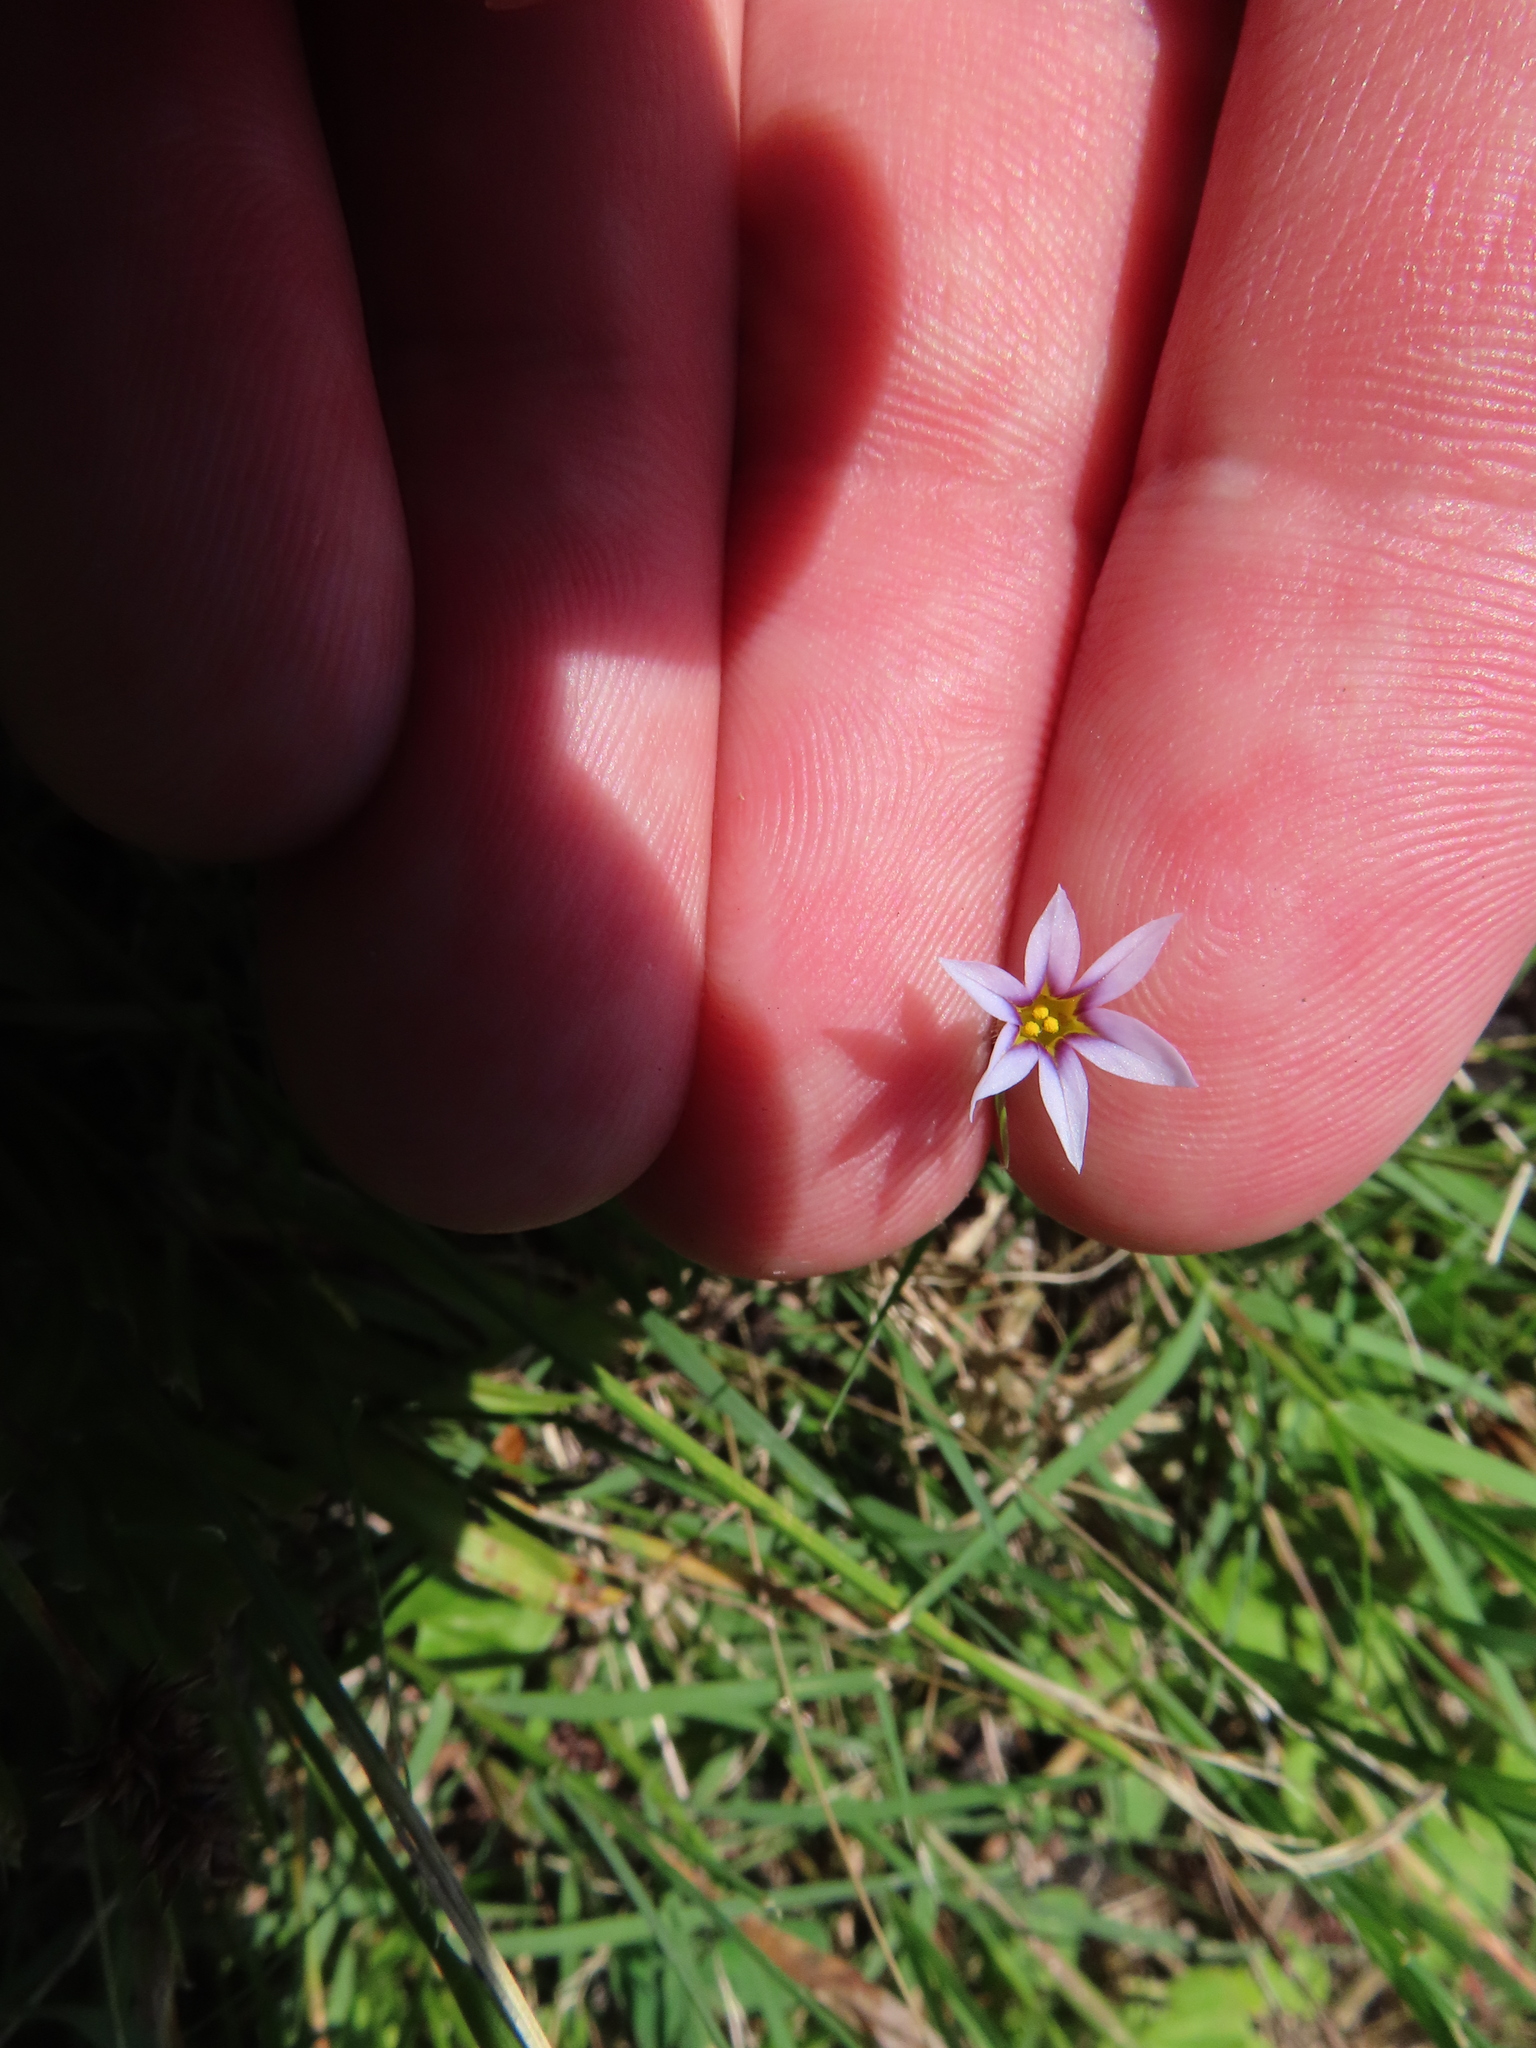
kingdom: Plantae
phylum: Tracheophyta
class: Liliopsida
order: Asparagales
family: Iridaceae
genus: Sisyrinchium
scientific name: Sisyrinchium micranthum
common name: Bermuda pigroot
